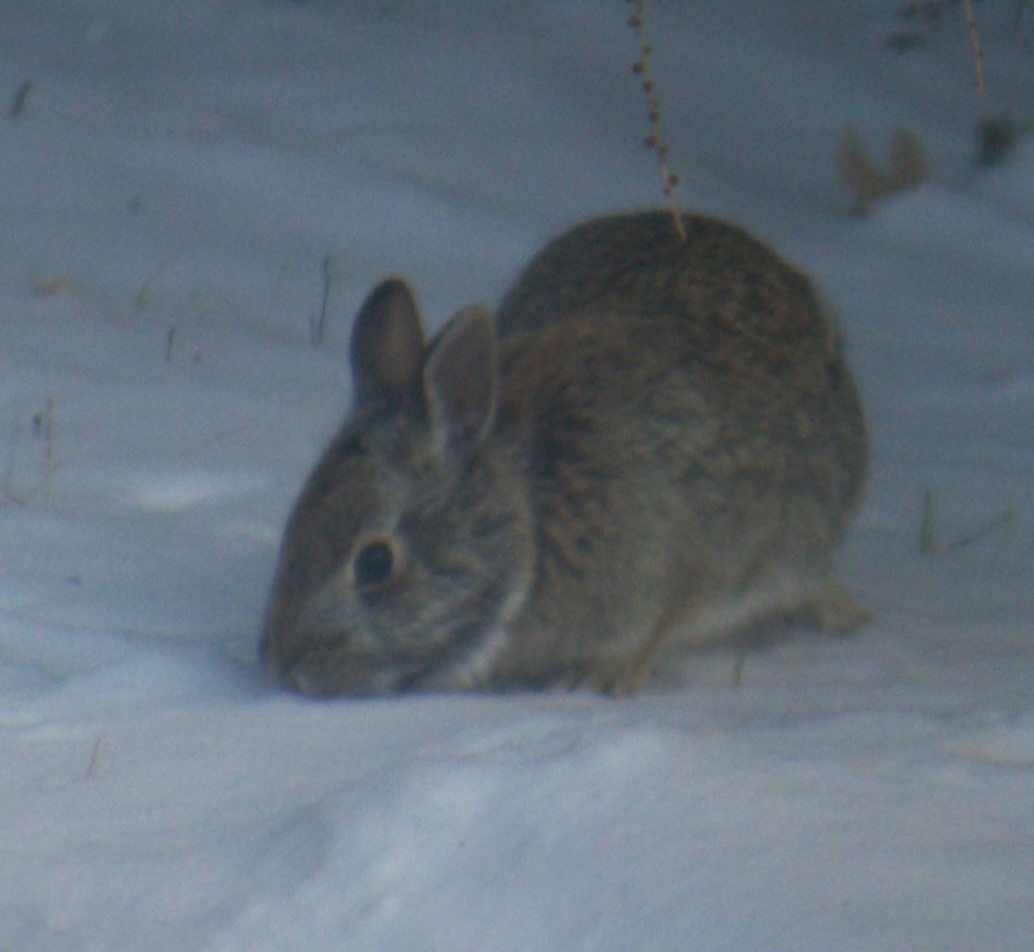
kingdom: Animalia
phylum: Chordata
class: Mammalia
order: Lagomorpha
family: Leporidae
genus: Sylvilagus
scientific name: Sylvilagus floridanus
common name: Eastern cottontail
